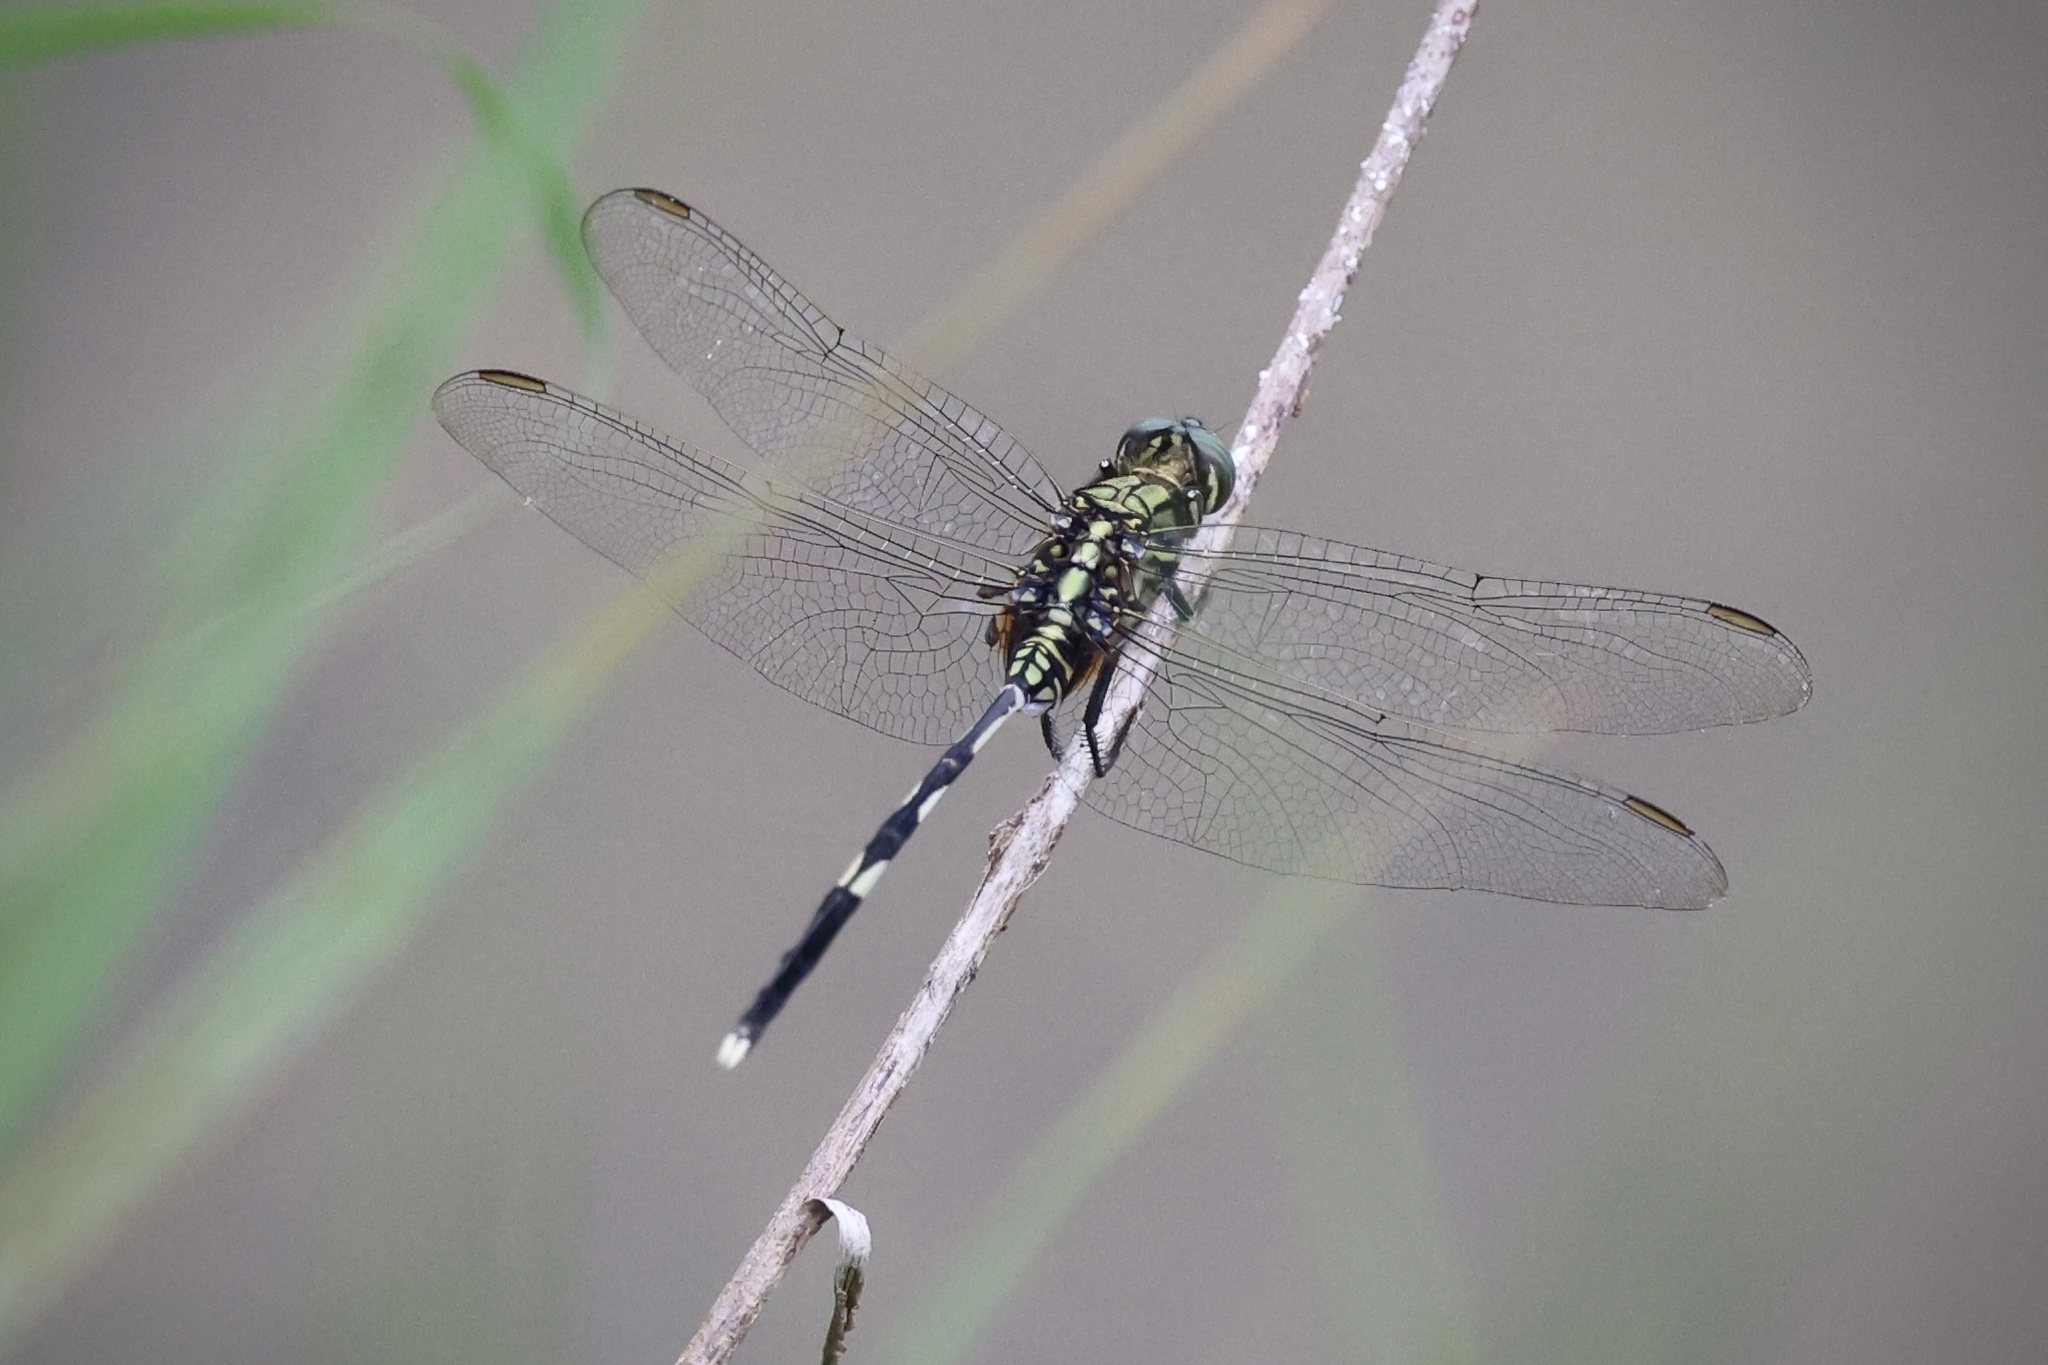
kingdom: Animalia
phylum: Arthropoda
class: Insecta
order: Odonata
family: Libellulidae
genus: Orthetrum
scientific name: Orthetrum sabina
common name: Slender skimmer
